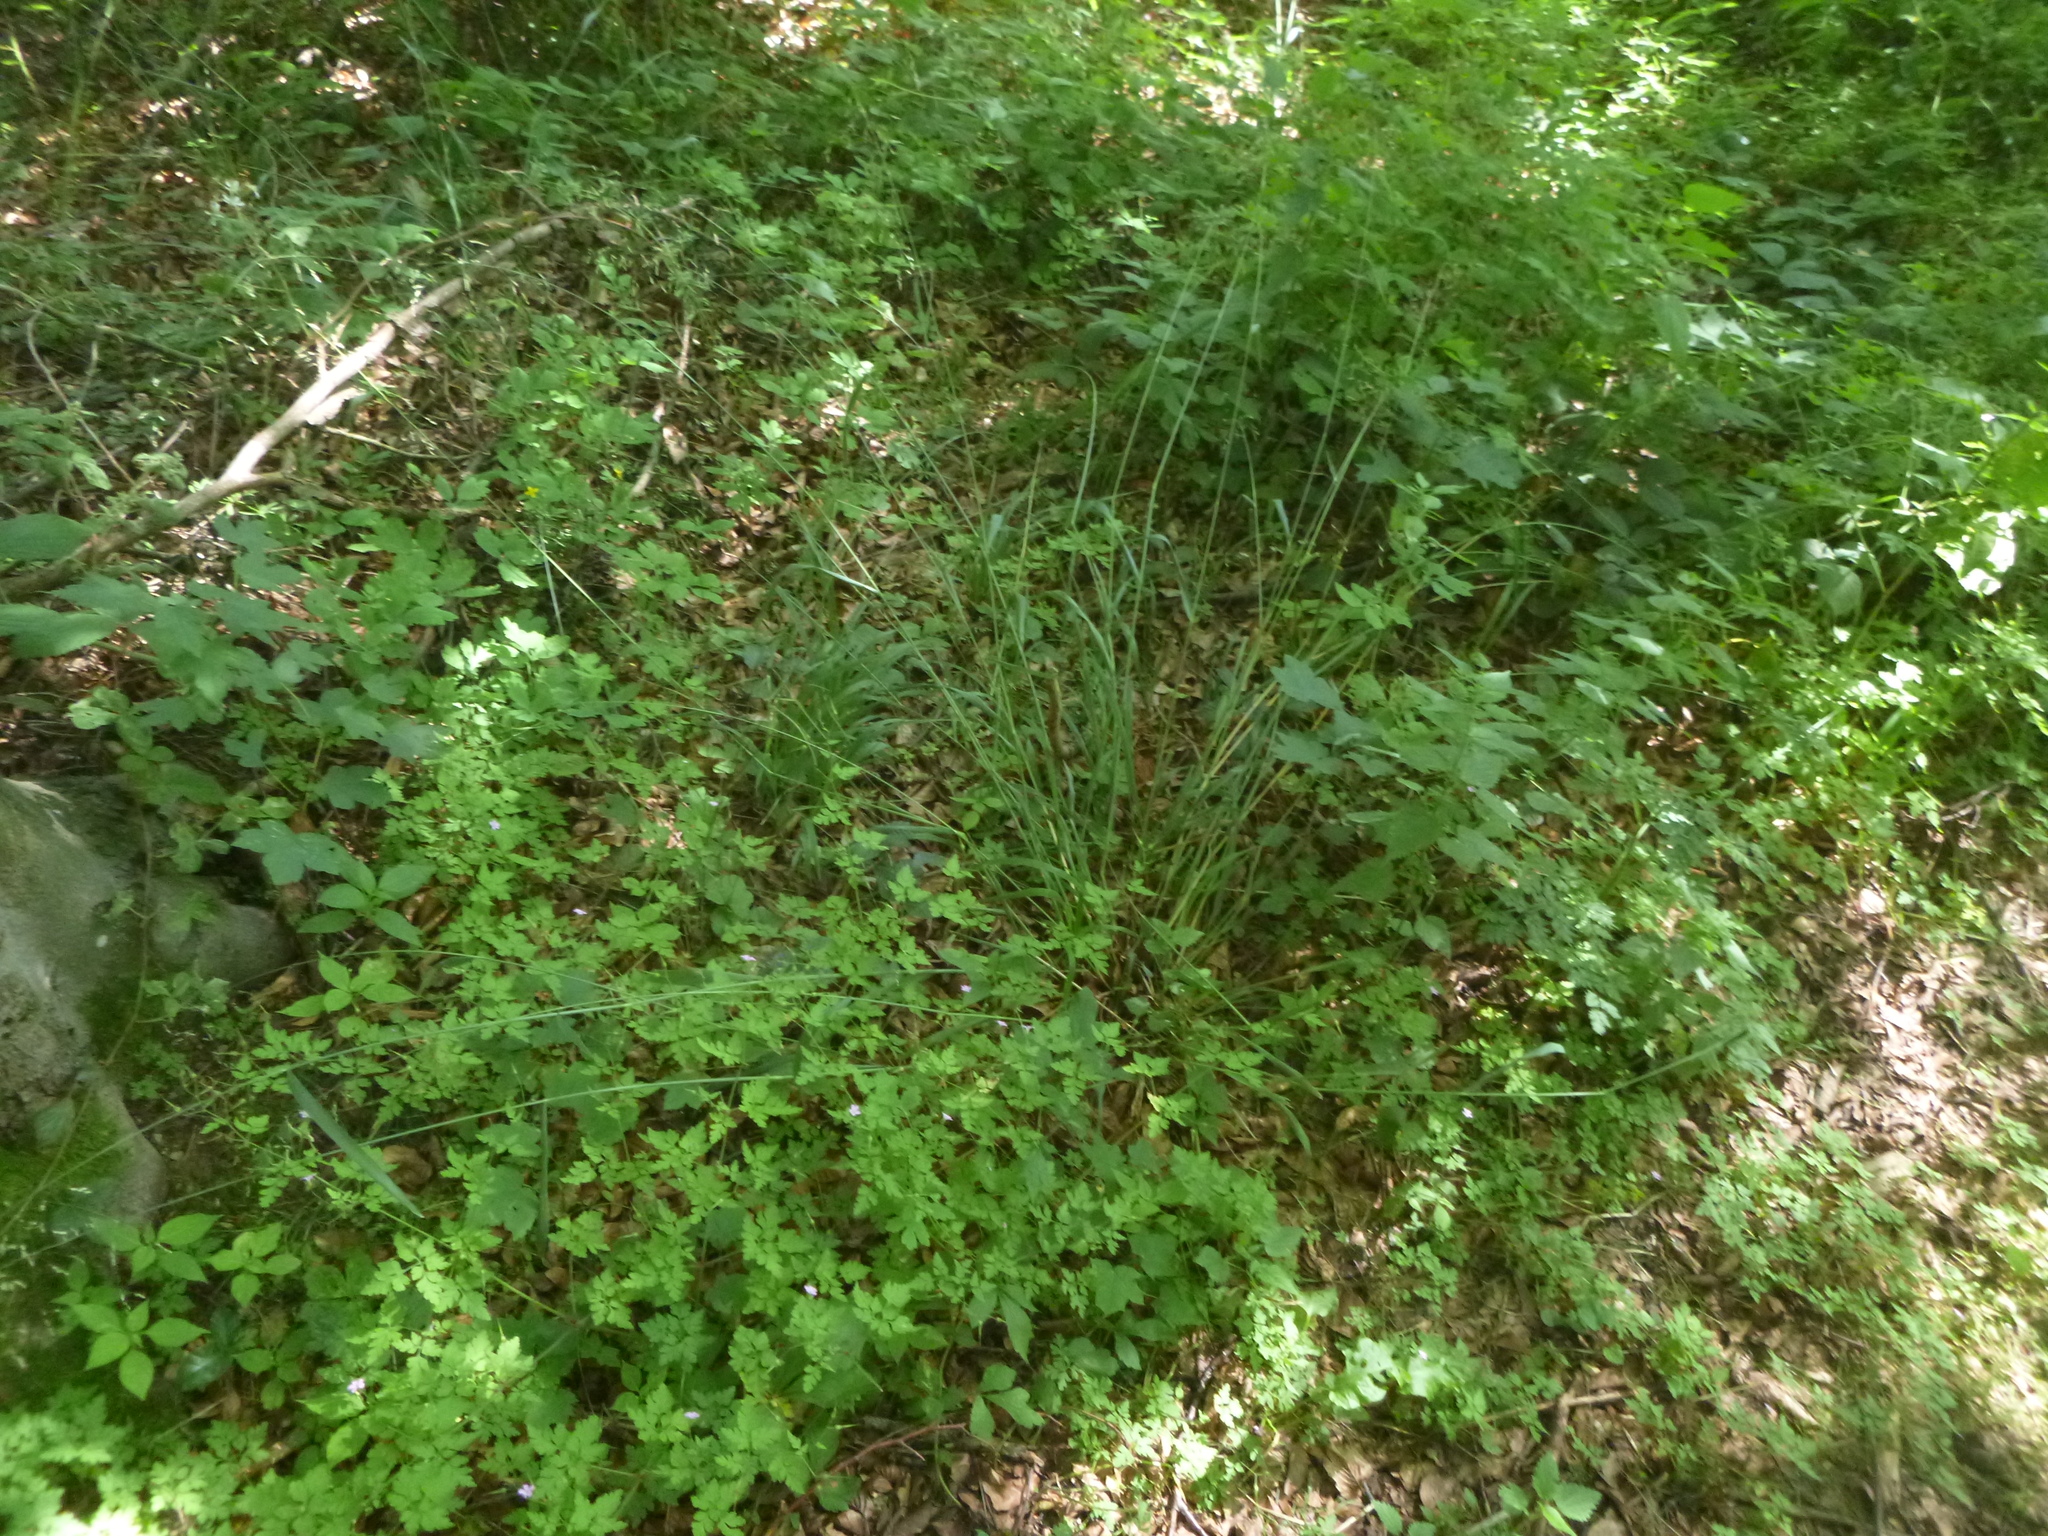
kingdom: Plantae
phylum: Tracheophyta
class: Liliopsida
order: Poales
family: Poaceae
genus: Milium
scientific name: Milium effusum
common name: Wood millet
